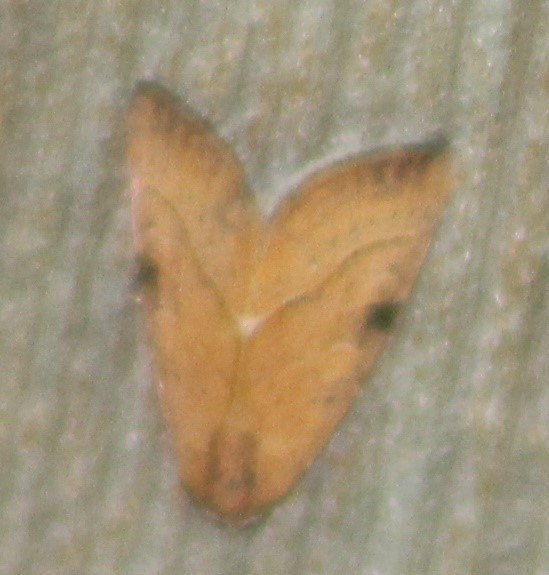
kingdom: Animalia
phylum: Arthropoda
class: Insecta
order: Lepidoptera
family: Noctuidae
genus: Galgula
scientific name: Galgula partita
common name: Wedgeling
